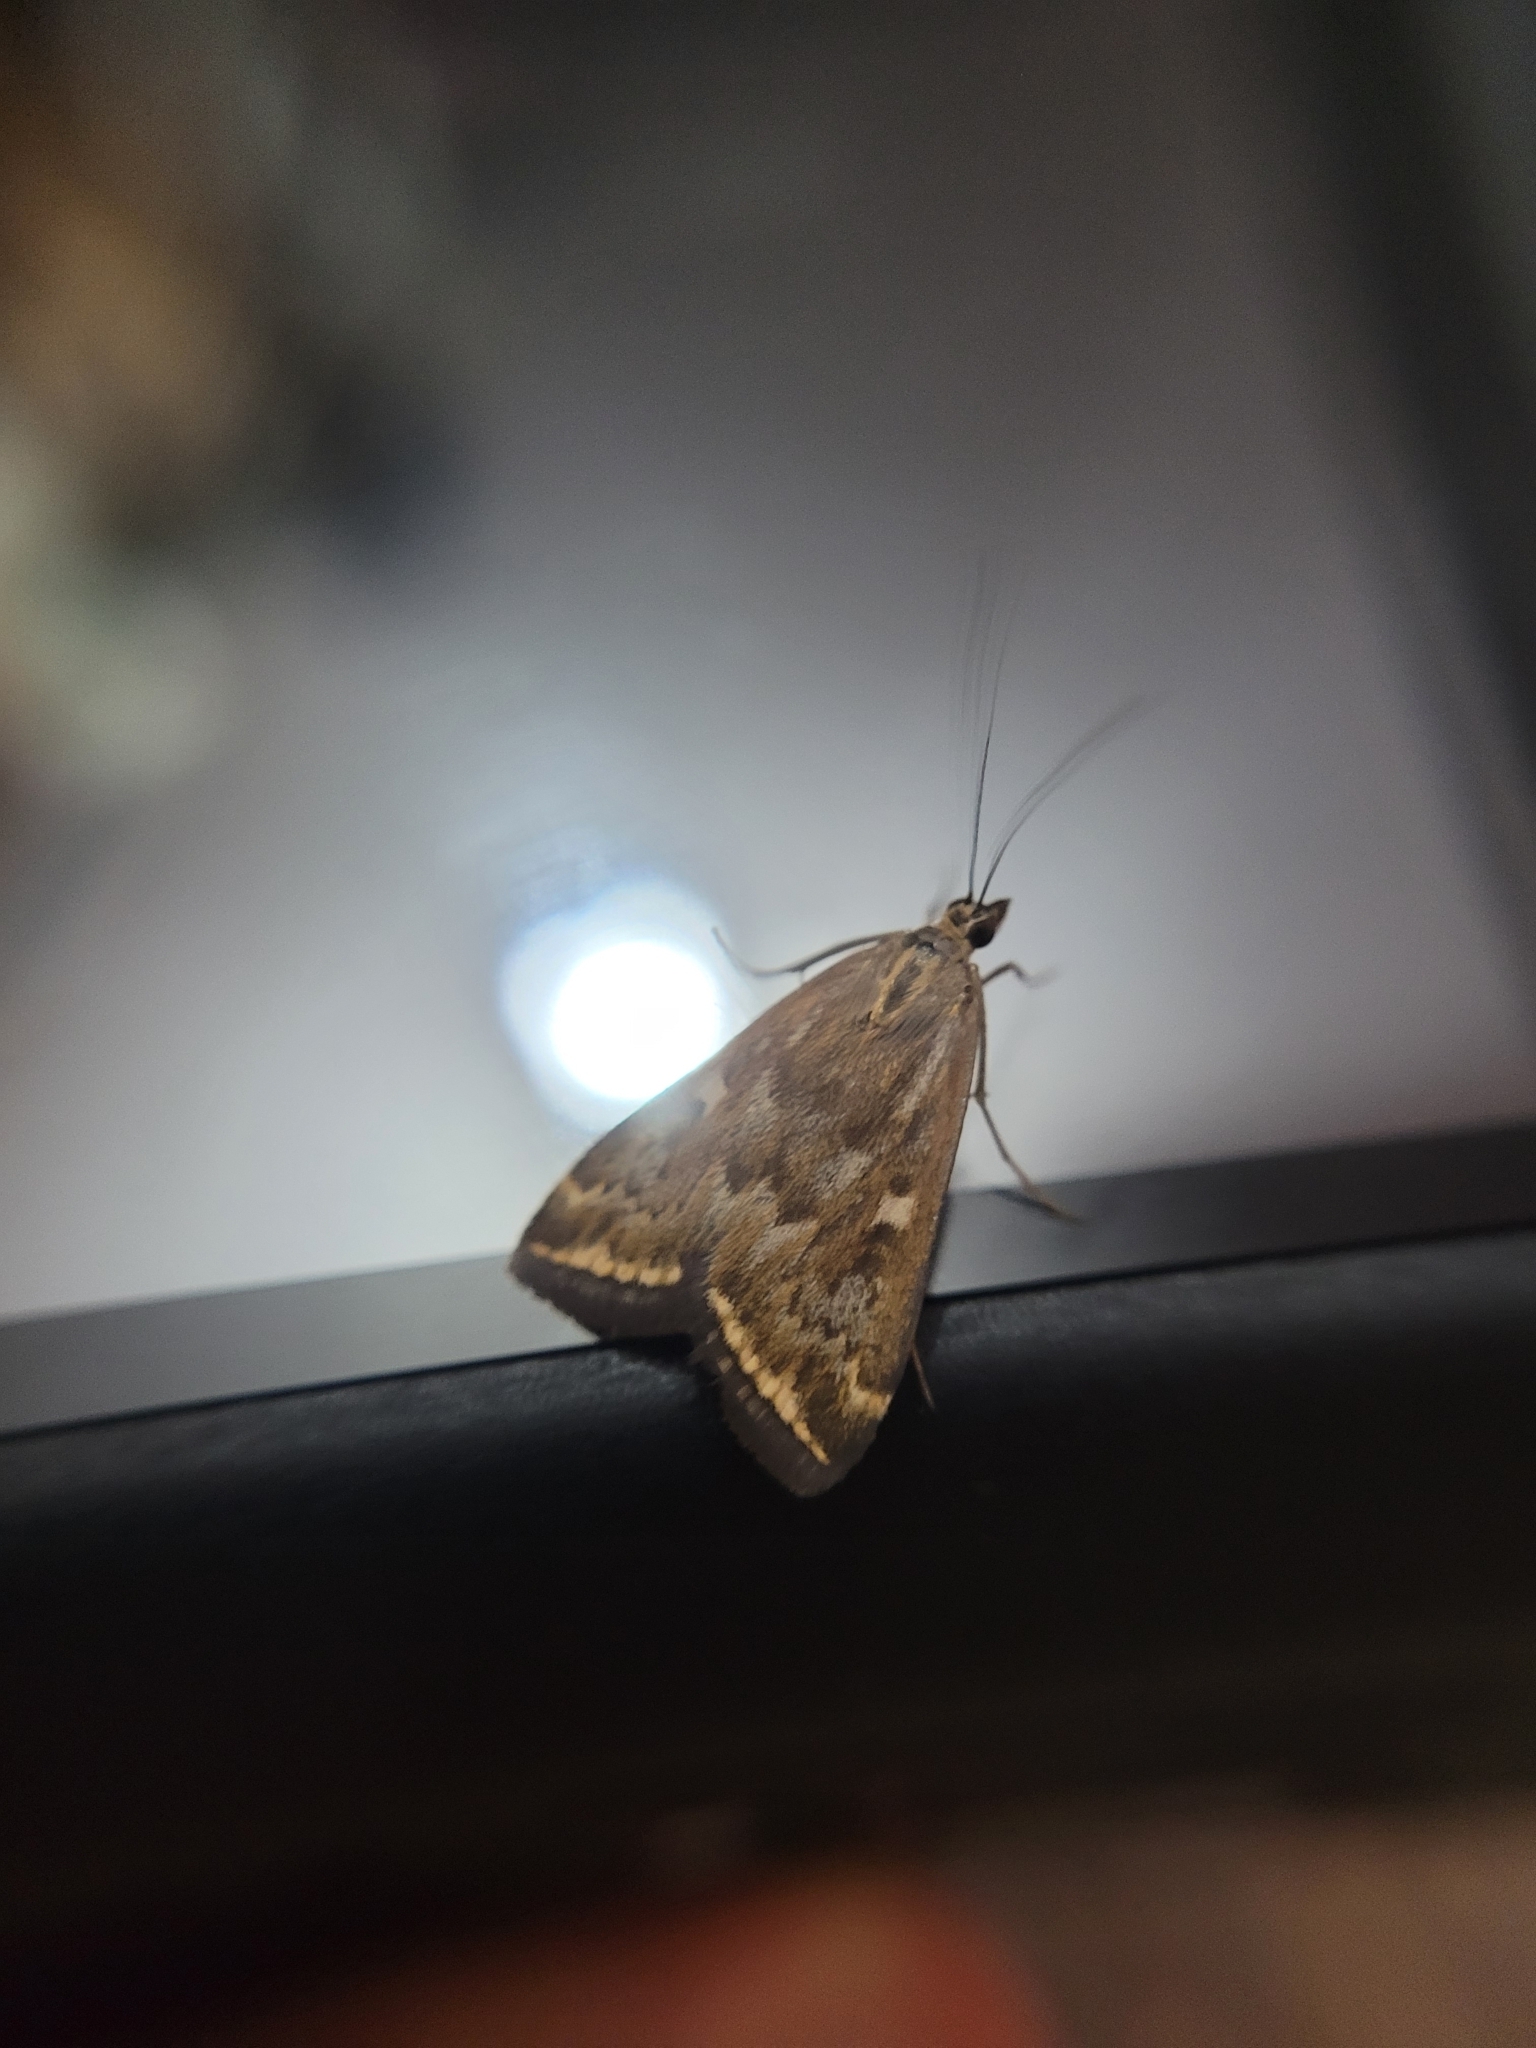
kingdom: Animalia
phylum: Arthropoda
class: Insecta
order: Lepidoptera
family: Crambidae
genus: Loxostege
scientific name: Loxostege sticticalis
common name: Crambid moth
